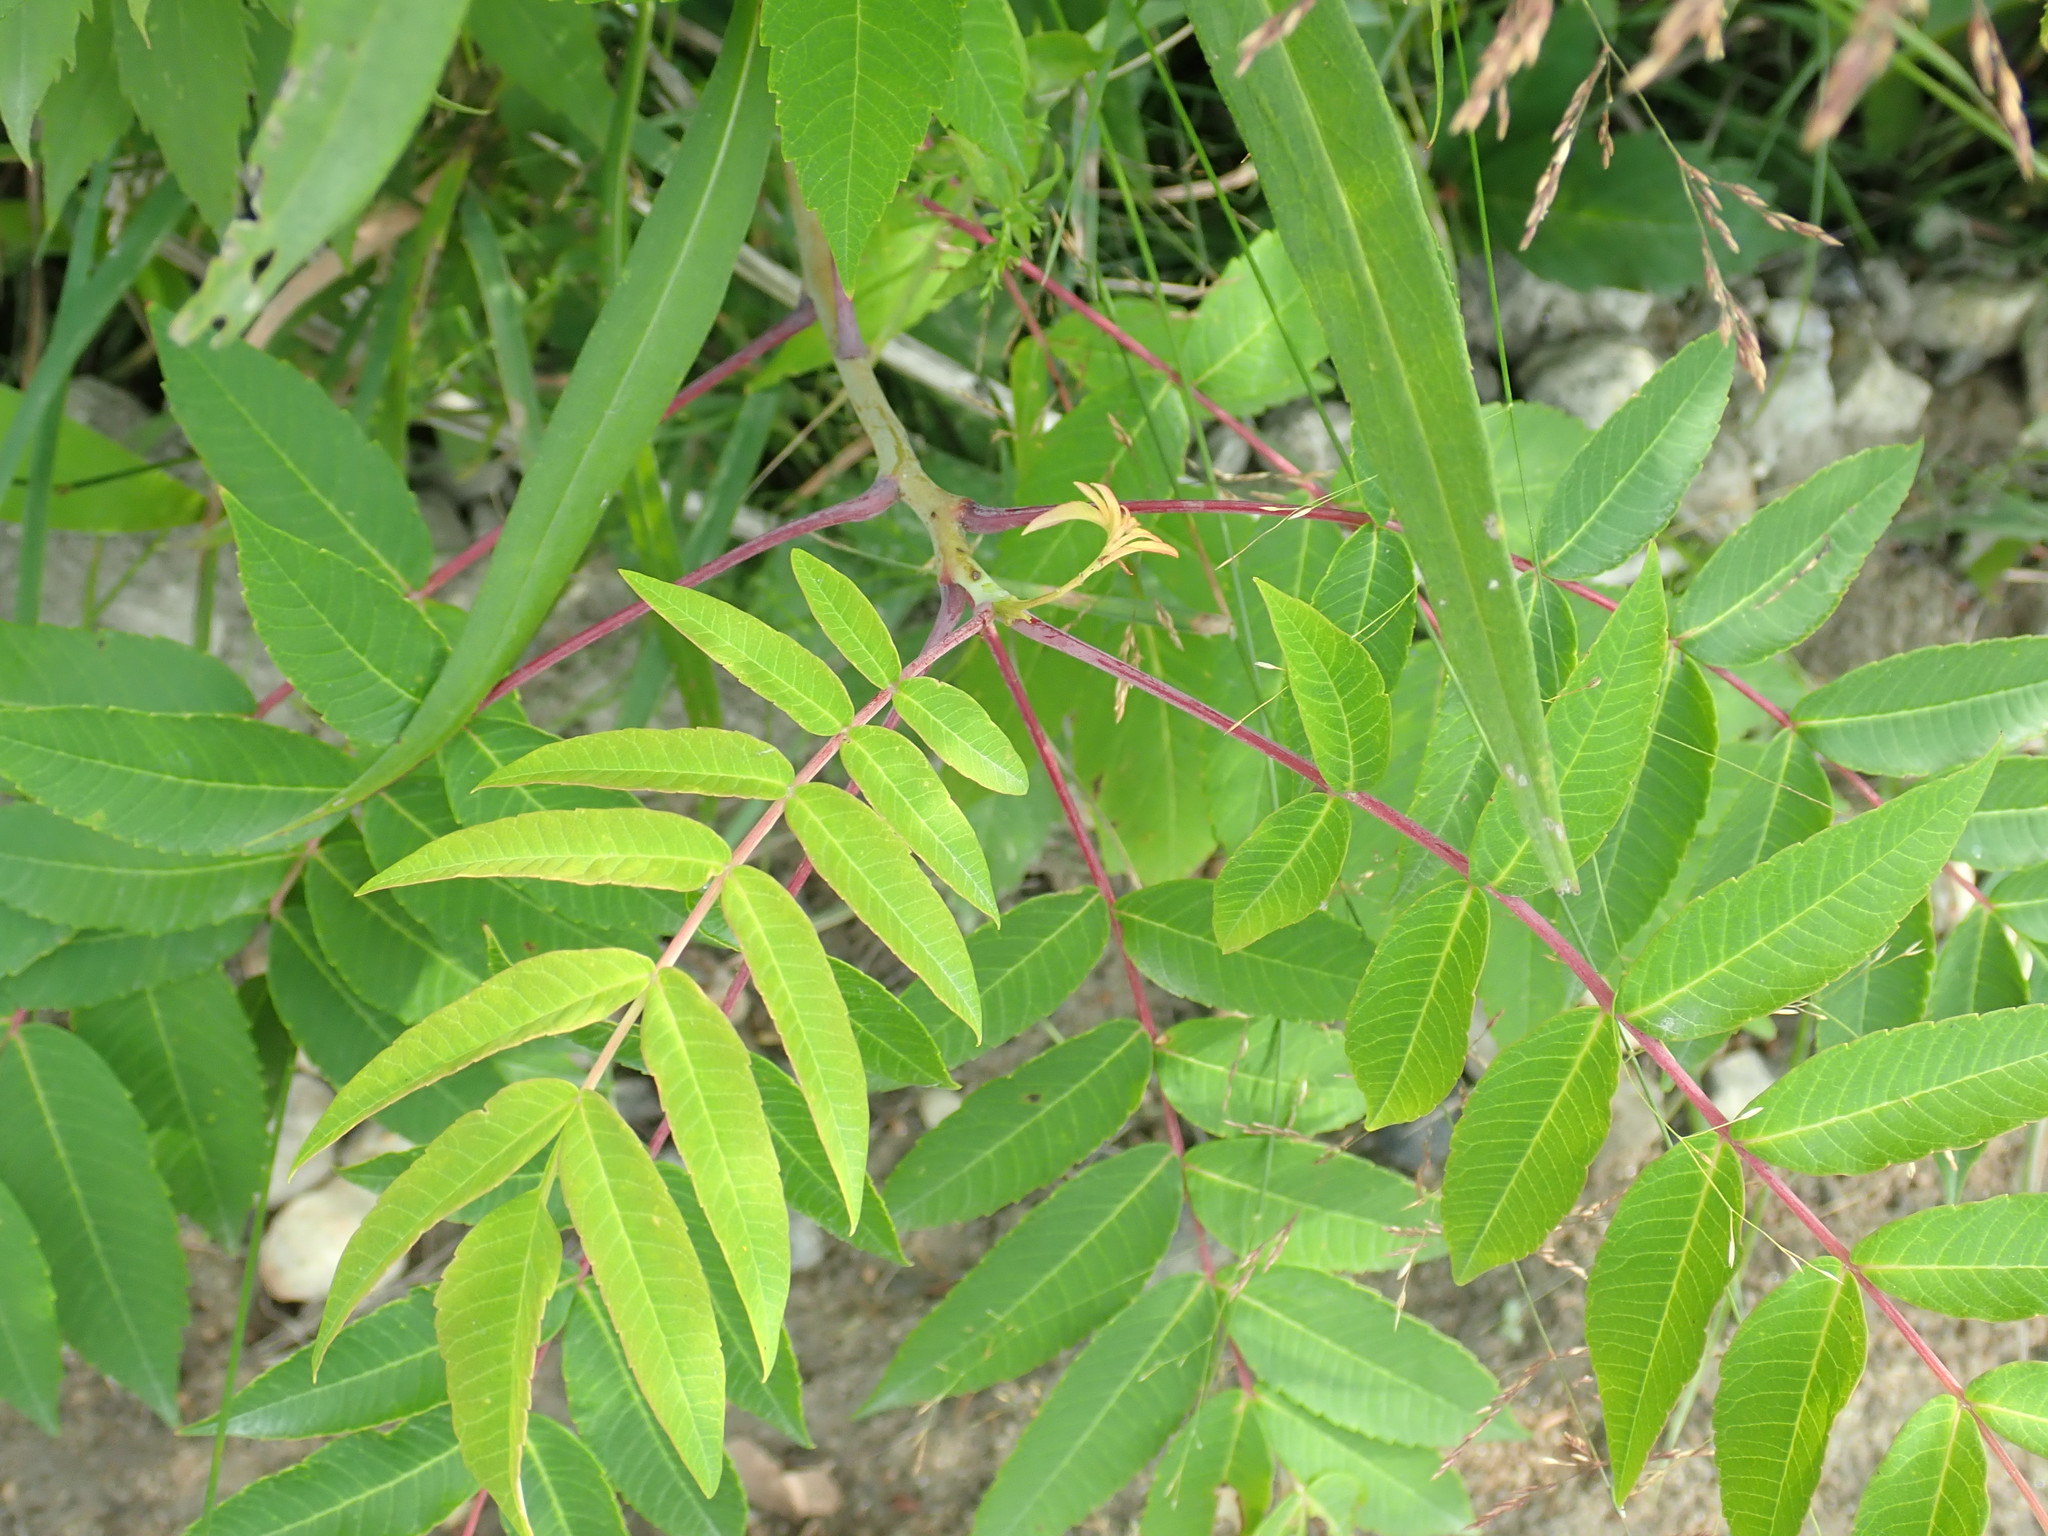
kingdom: Plantae
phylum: Tracheophyta
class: Magnoliopsida
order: Sapindales
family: Anacardiaceae
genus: Rhus
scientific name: Rhus glabra
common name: Scarlet sumac
